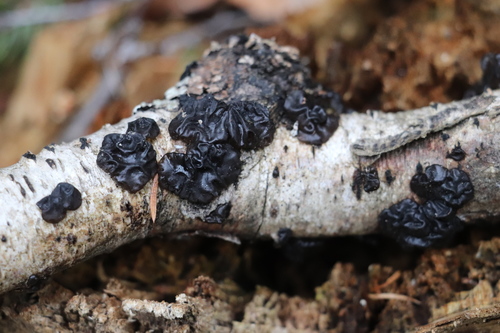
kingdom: Fungi
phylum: Basidiomycota
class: Agaricomycetes
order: Auriculariales
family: Auriculariaceae
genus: Exidia
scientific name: Exidia nigricans
